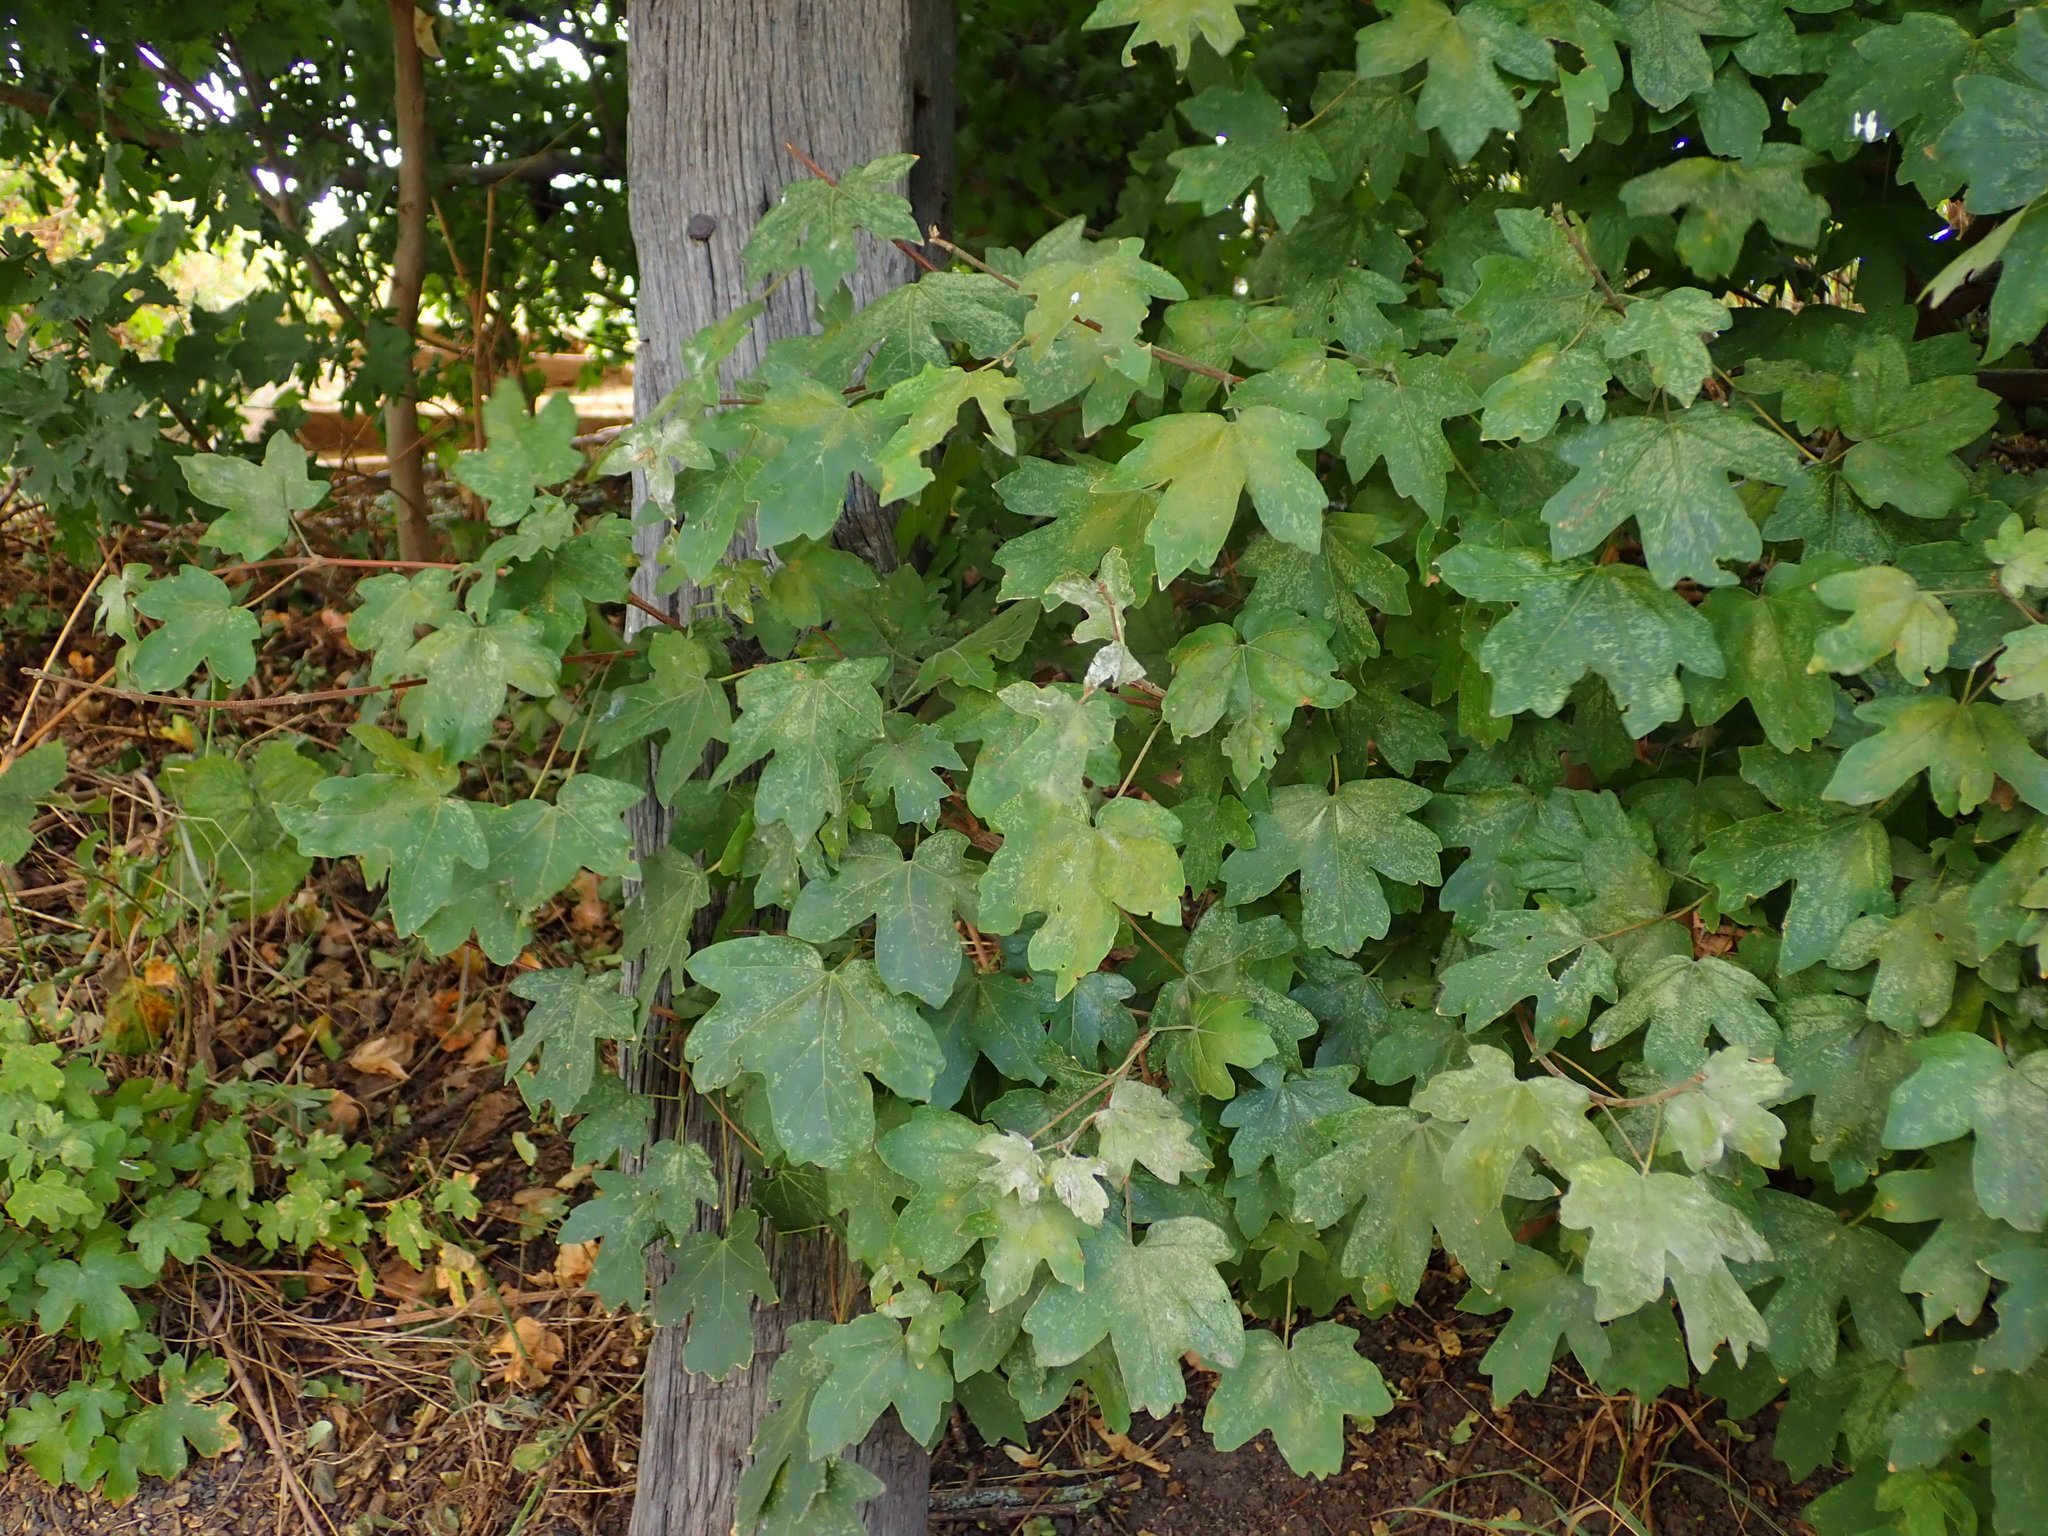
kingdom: Plantae
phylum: Tracheophyta
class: Magnoliopsida
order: Sapindales
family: Sapindaceae
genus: Acer
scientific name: Acer campestre
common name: Field maple
